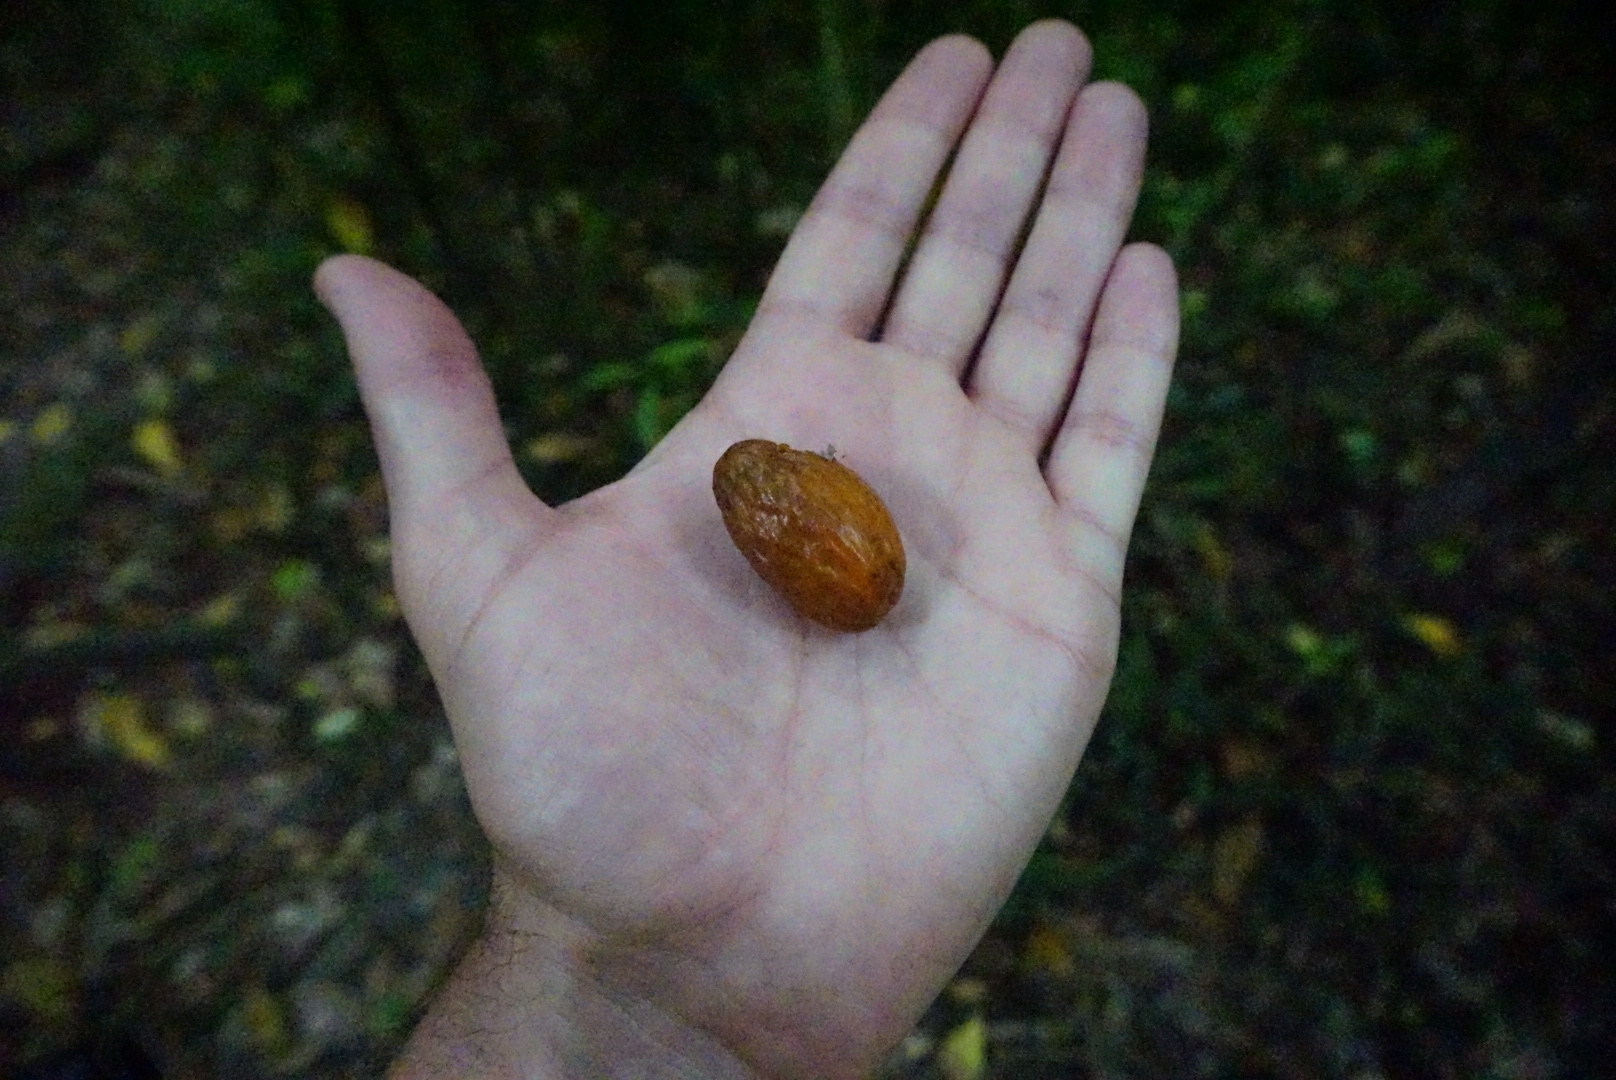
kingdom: Plantae
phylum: Tracheophyta
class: Magnoliopsida
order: Cucurbitales
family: Corynocarpaceae
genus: Corynocarpus
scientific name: Corynocarpus laevigatus
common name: New zealand laurel
